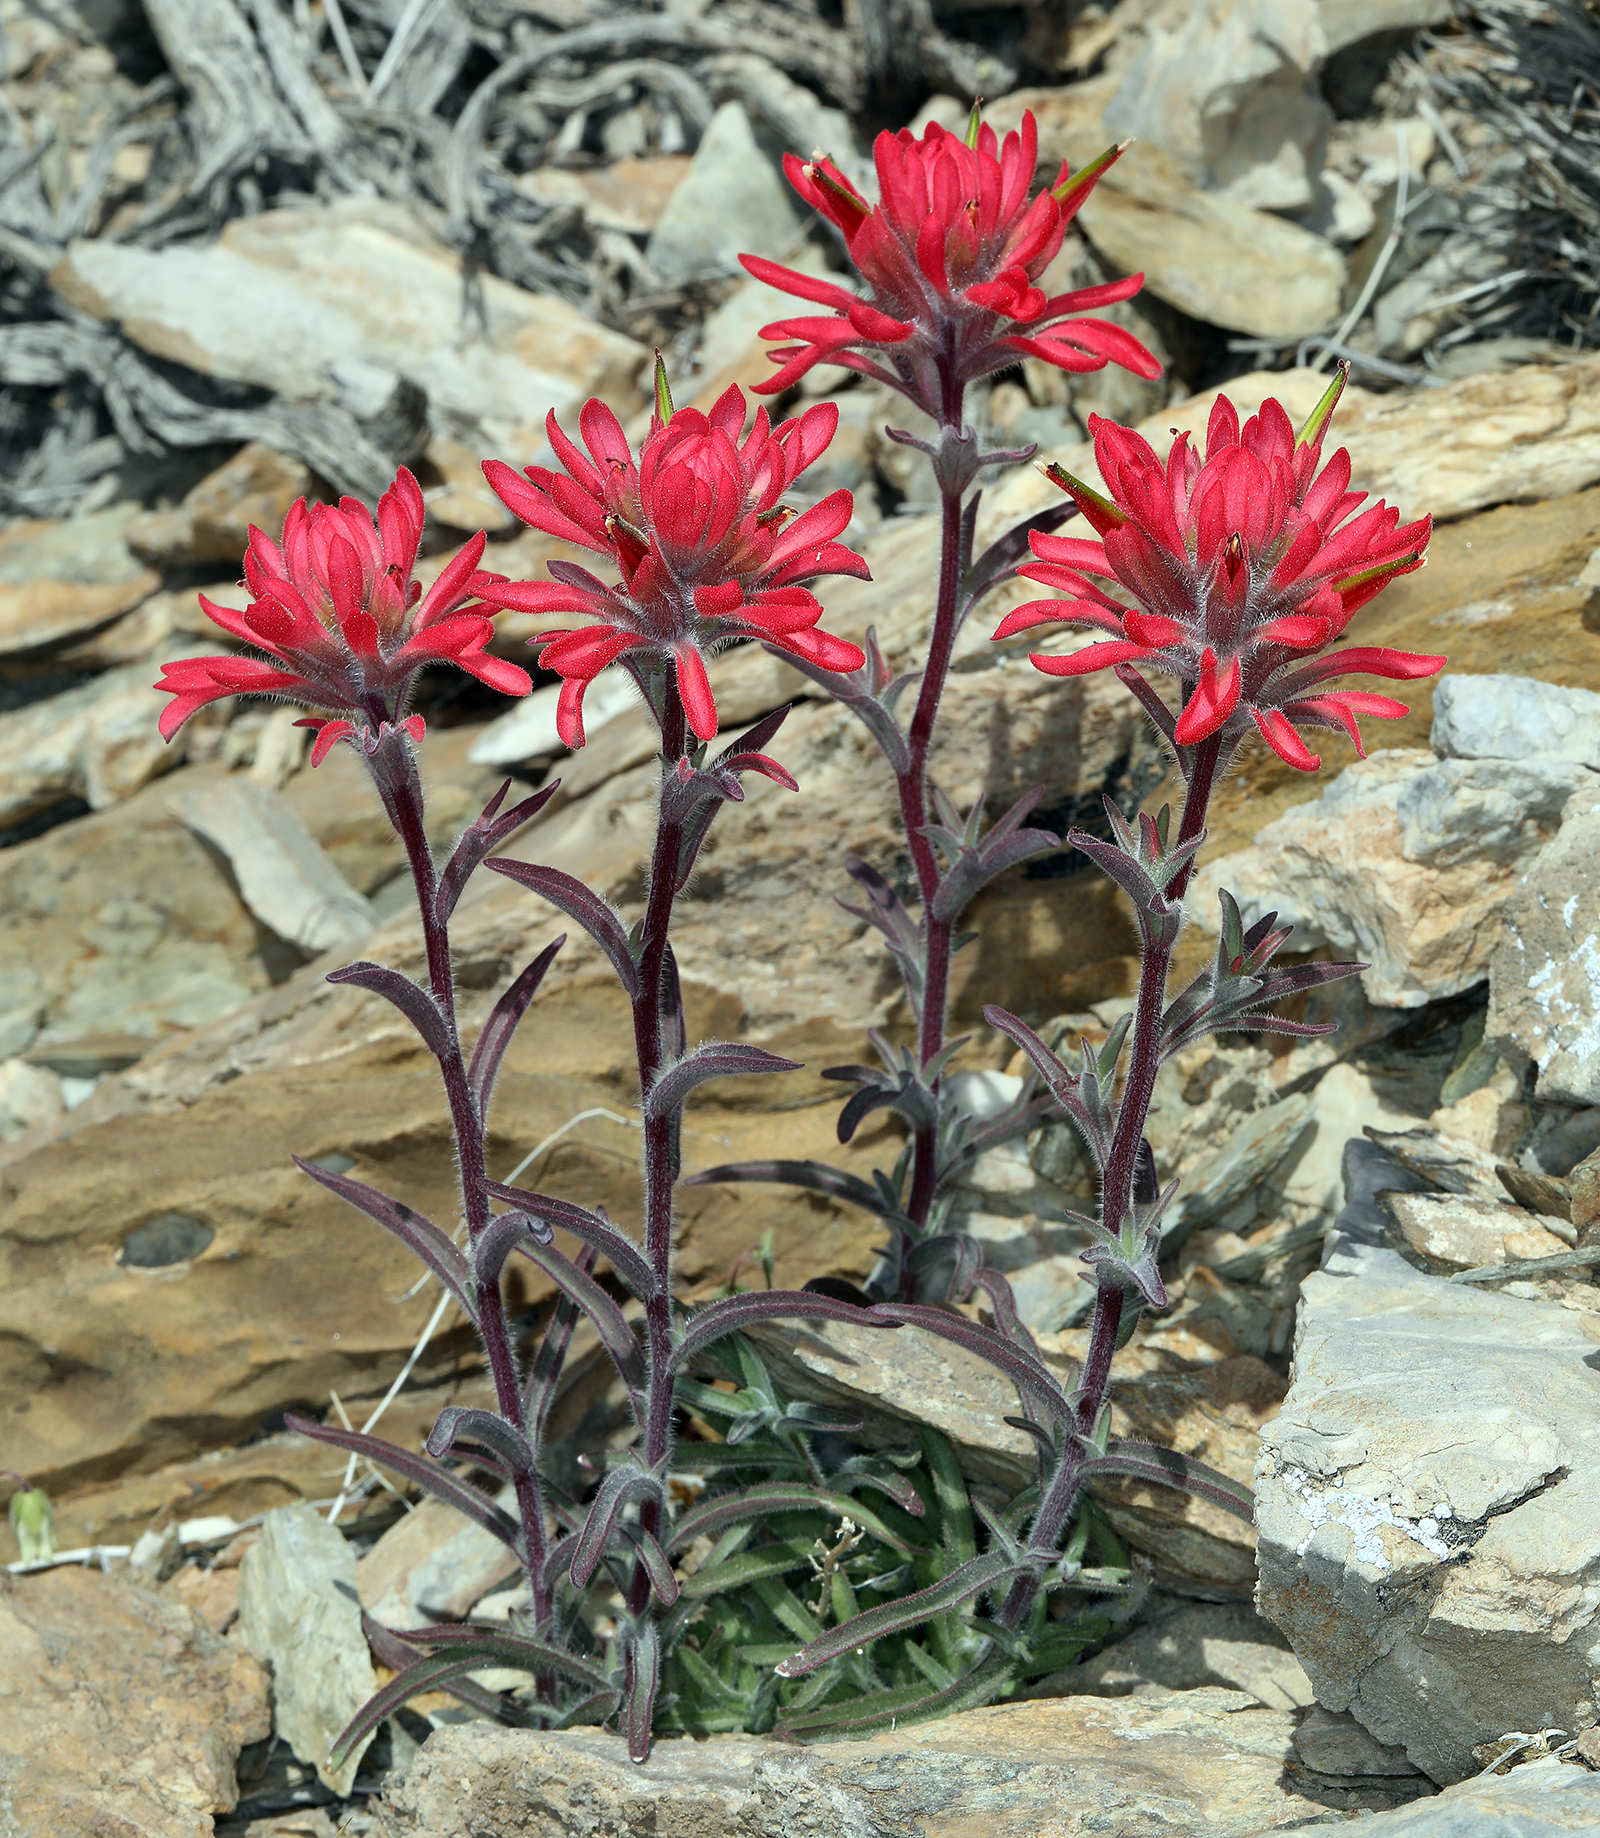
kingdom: Plantae
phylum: Tracheophyta
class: Magnoliopsida
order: Lamiales
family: Orobanchaceae
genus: Castilleja
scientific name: Castilleja chromosa
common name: Desert paintbrush
